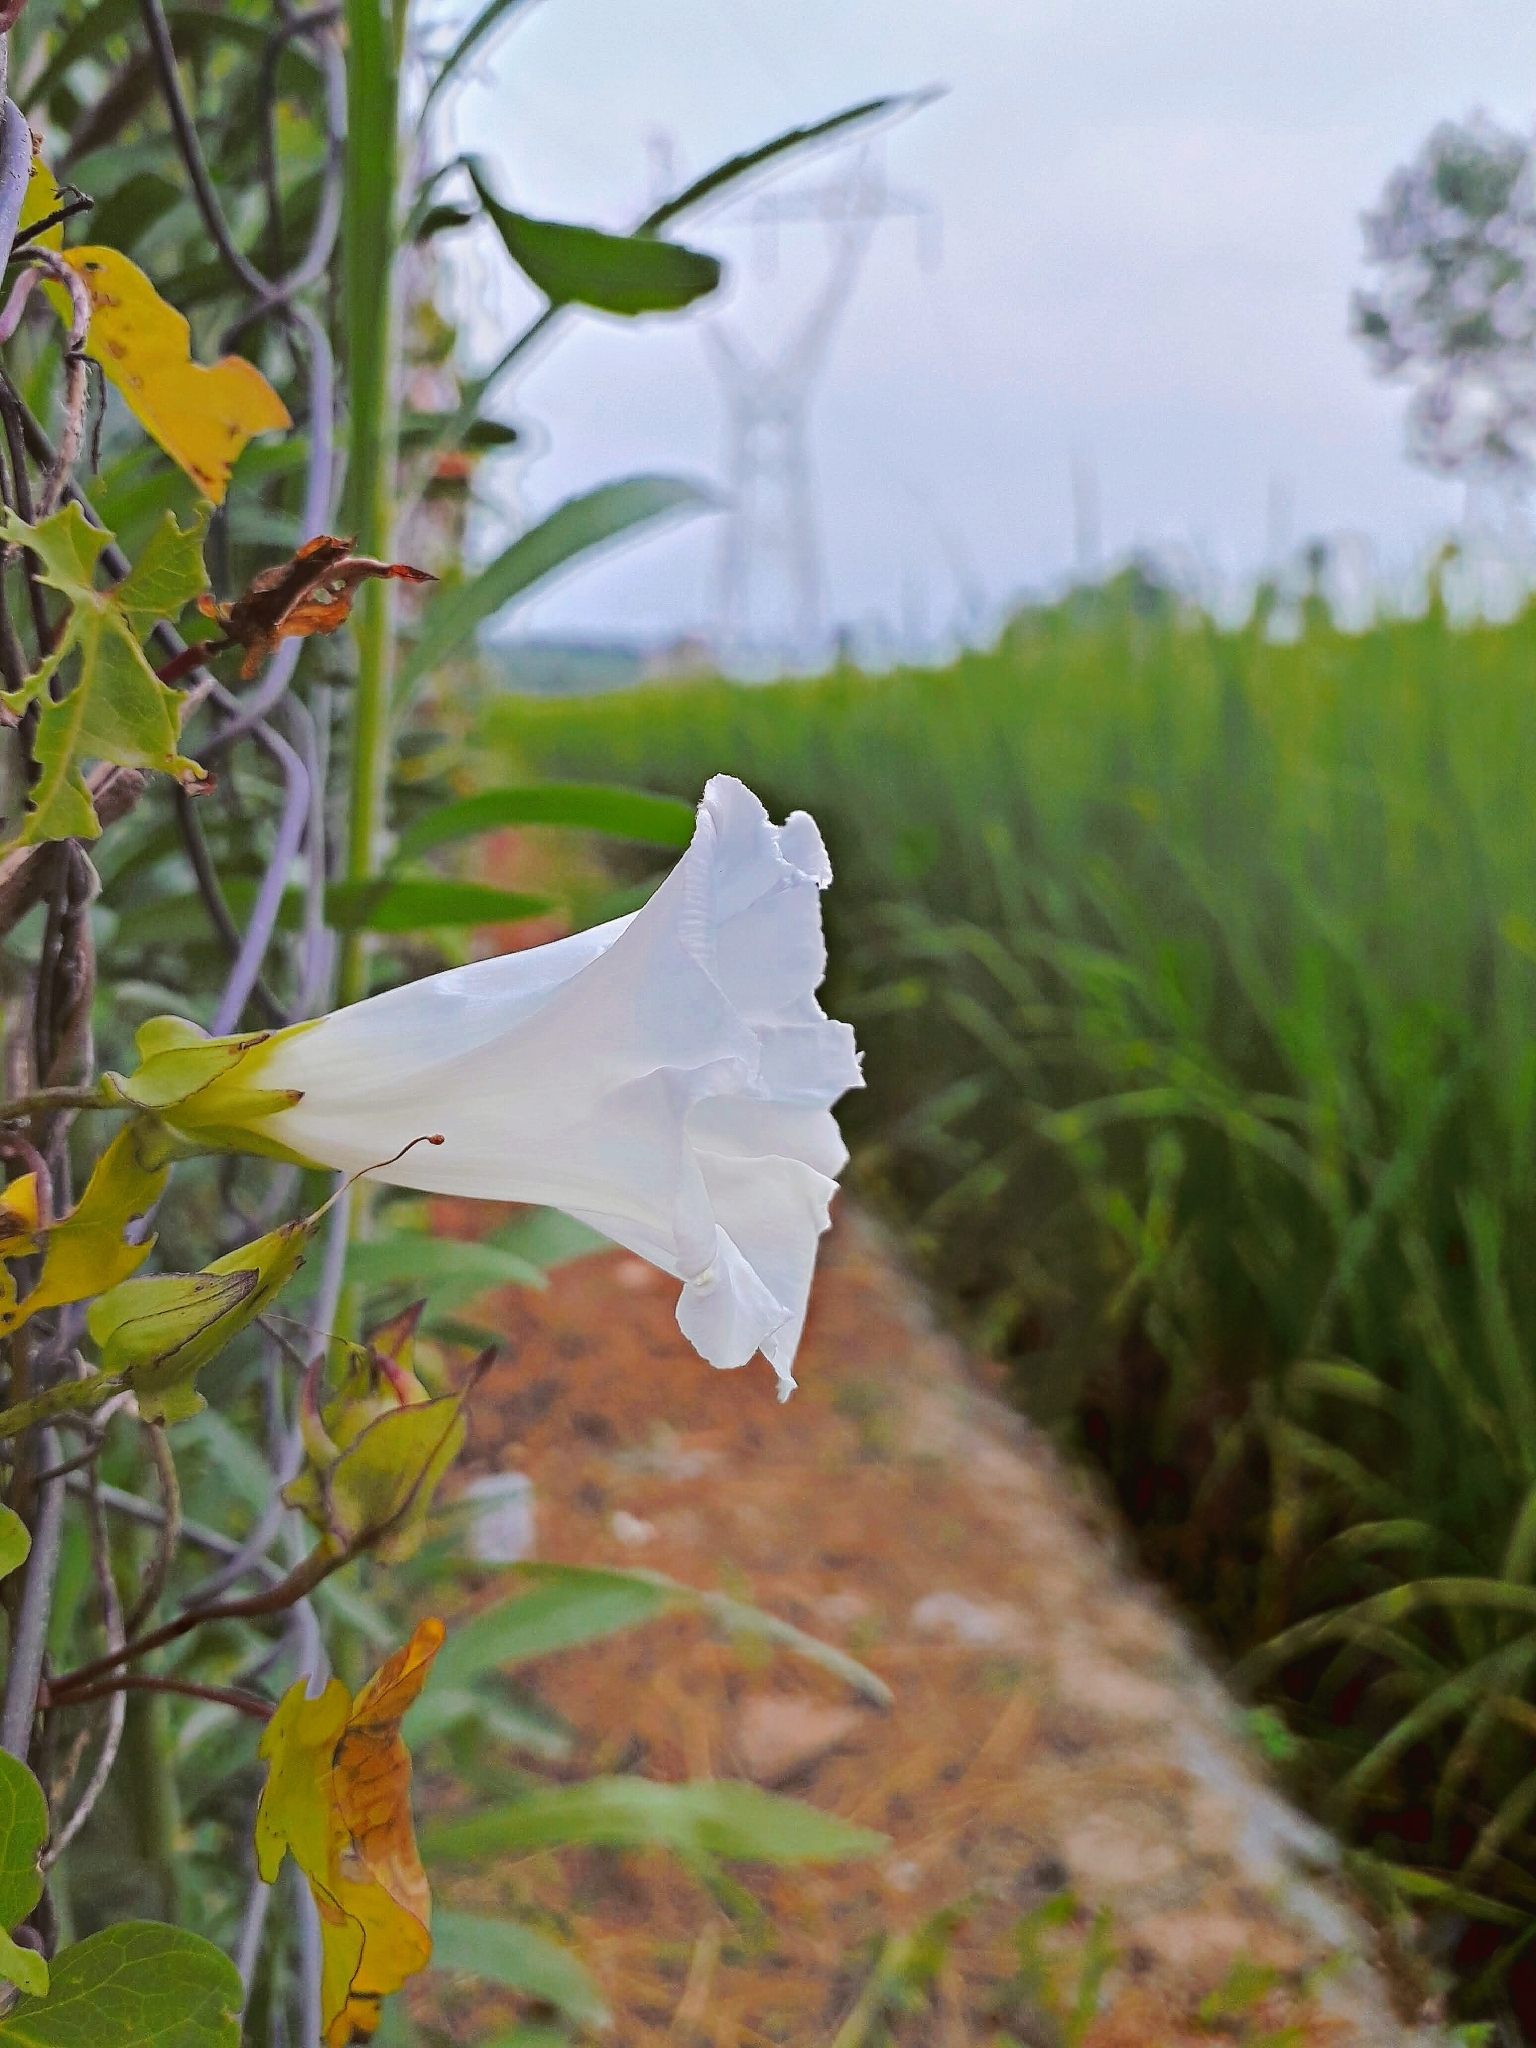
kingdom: Plantae
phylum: Tracheophyta
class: Magnoliopsida
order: Solanales
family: Convolvulaceae
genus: Calystegia
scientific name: Calystegia sepium
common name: Hedge bindweed
